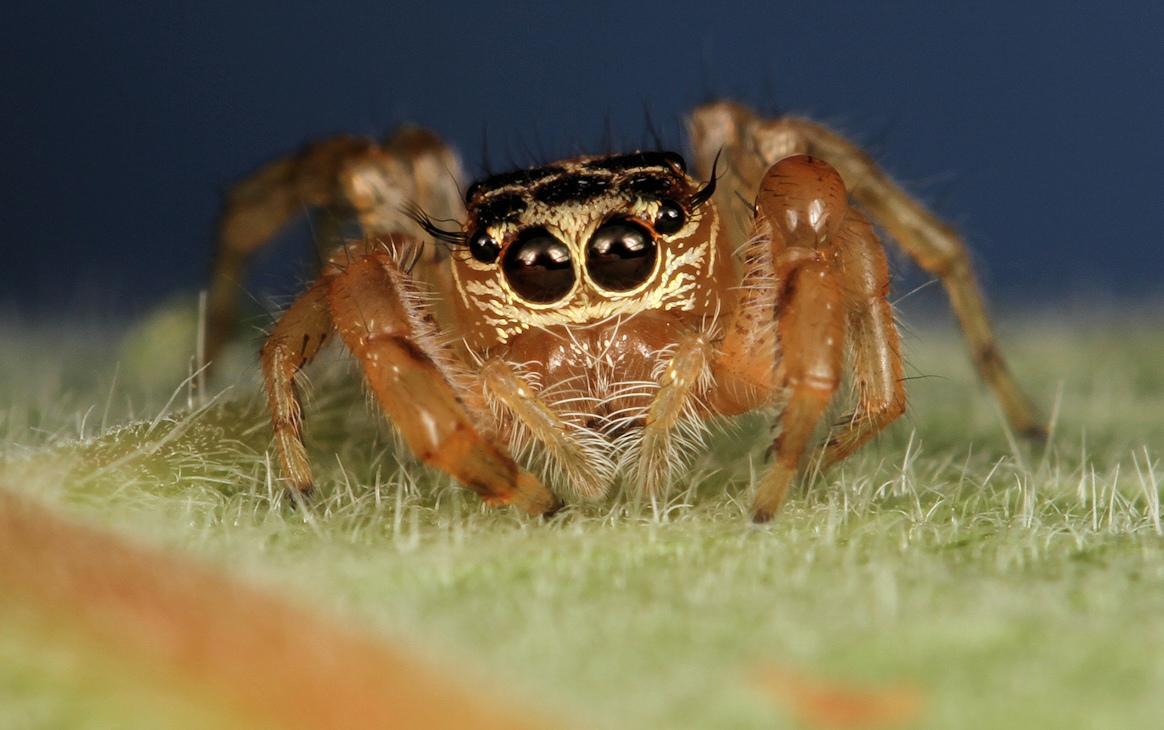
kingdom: Animalia
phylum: Arthropoda
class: Arachnida
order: Araneae
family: Salticidae
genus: Thyene
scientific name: Thyene natalii
